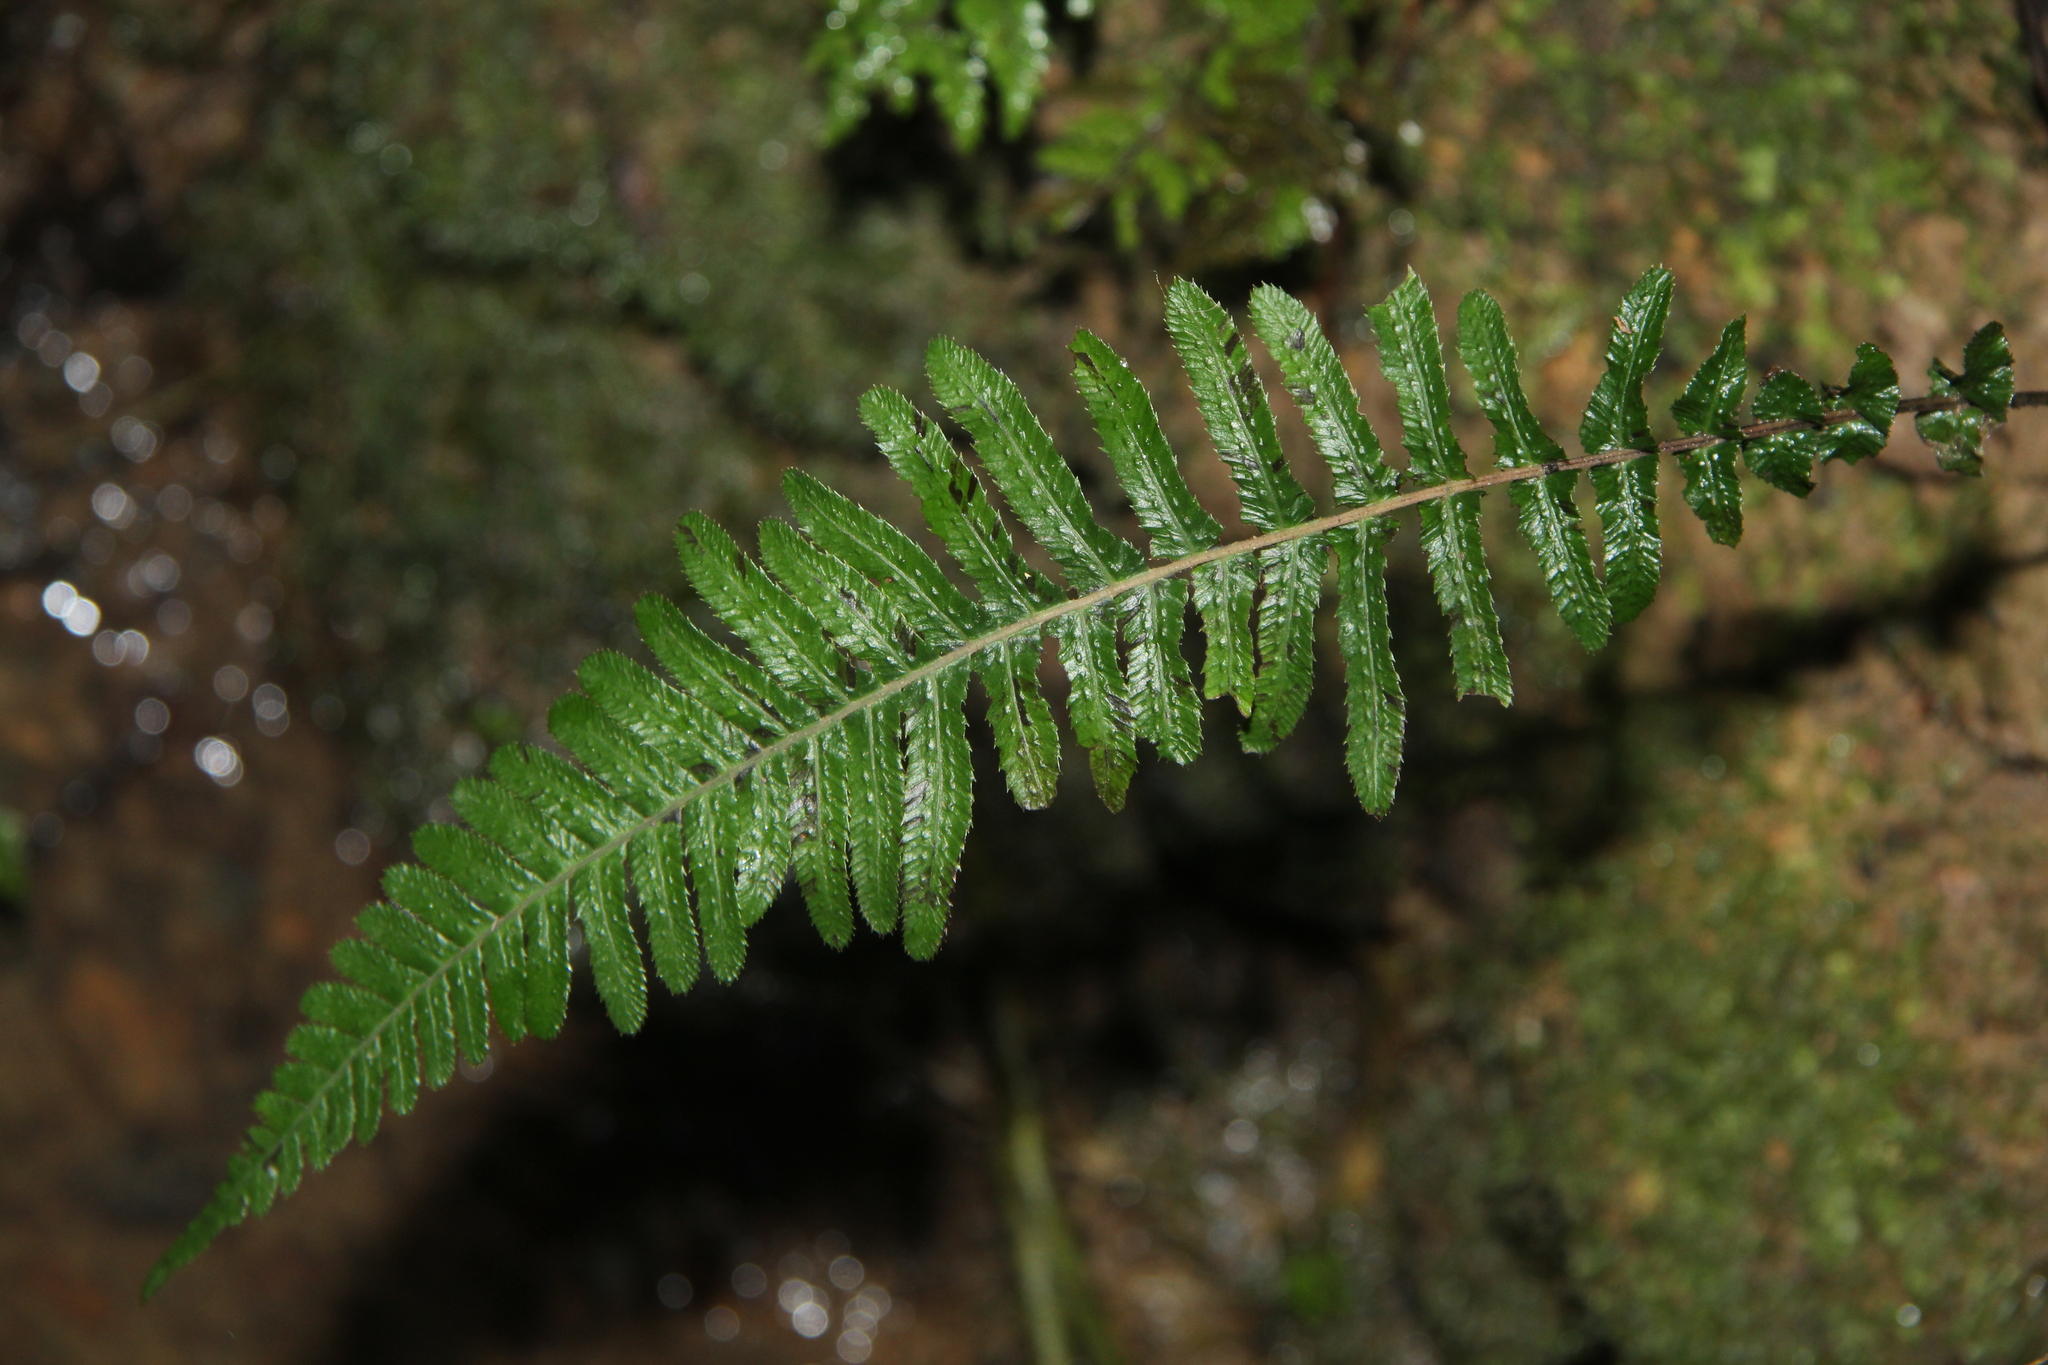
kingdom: Plantae
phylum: Tracheophyta
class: Polypodiopsida
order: Polypodiales
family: Blechnaceae
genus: Doodia
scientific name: Doodia australis
